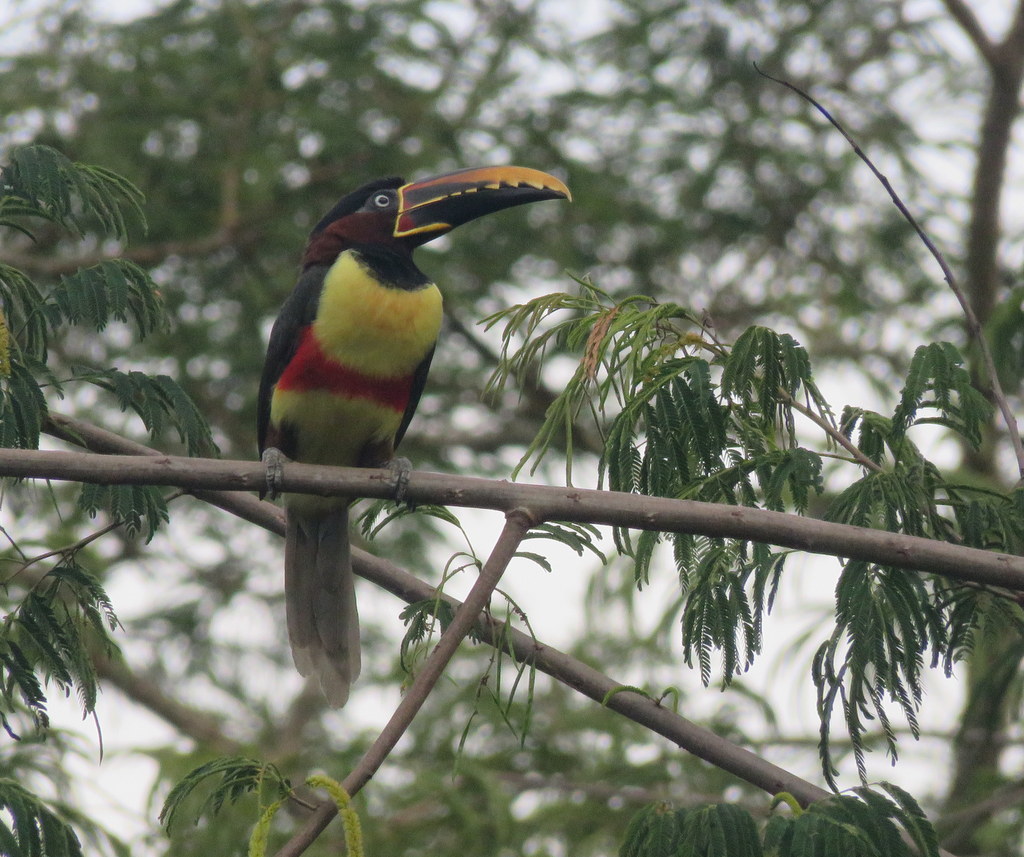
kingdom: Animalia
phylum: Chordata
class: Aves
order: Piciformes
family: Ramphastidae
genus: Pteroglossus
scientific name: Pteroglossus castanotis
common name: Chestnut-eared aracari
